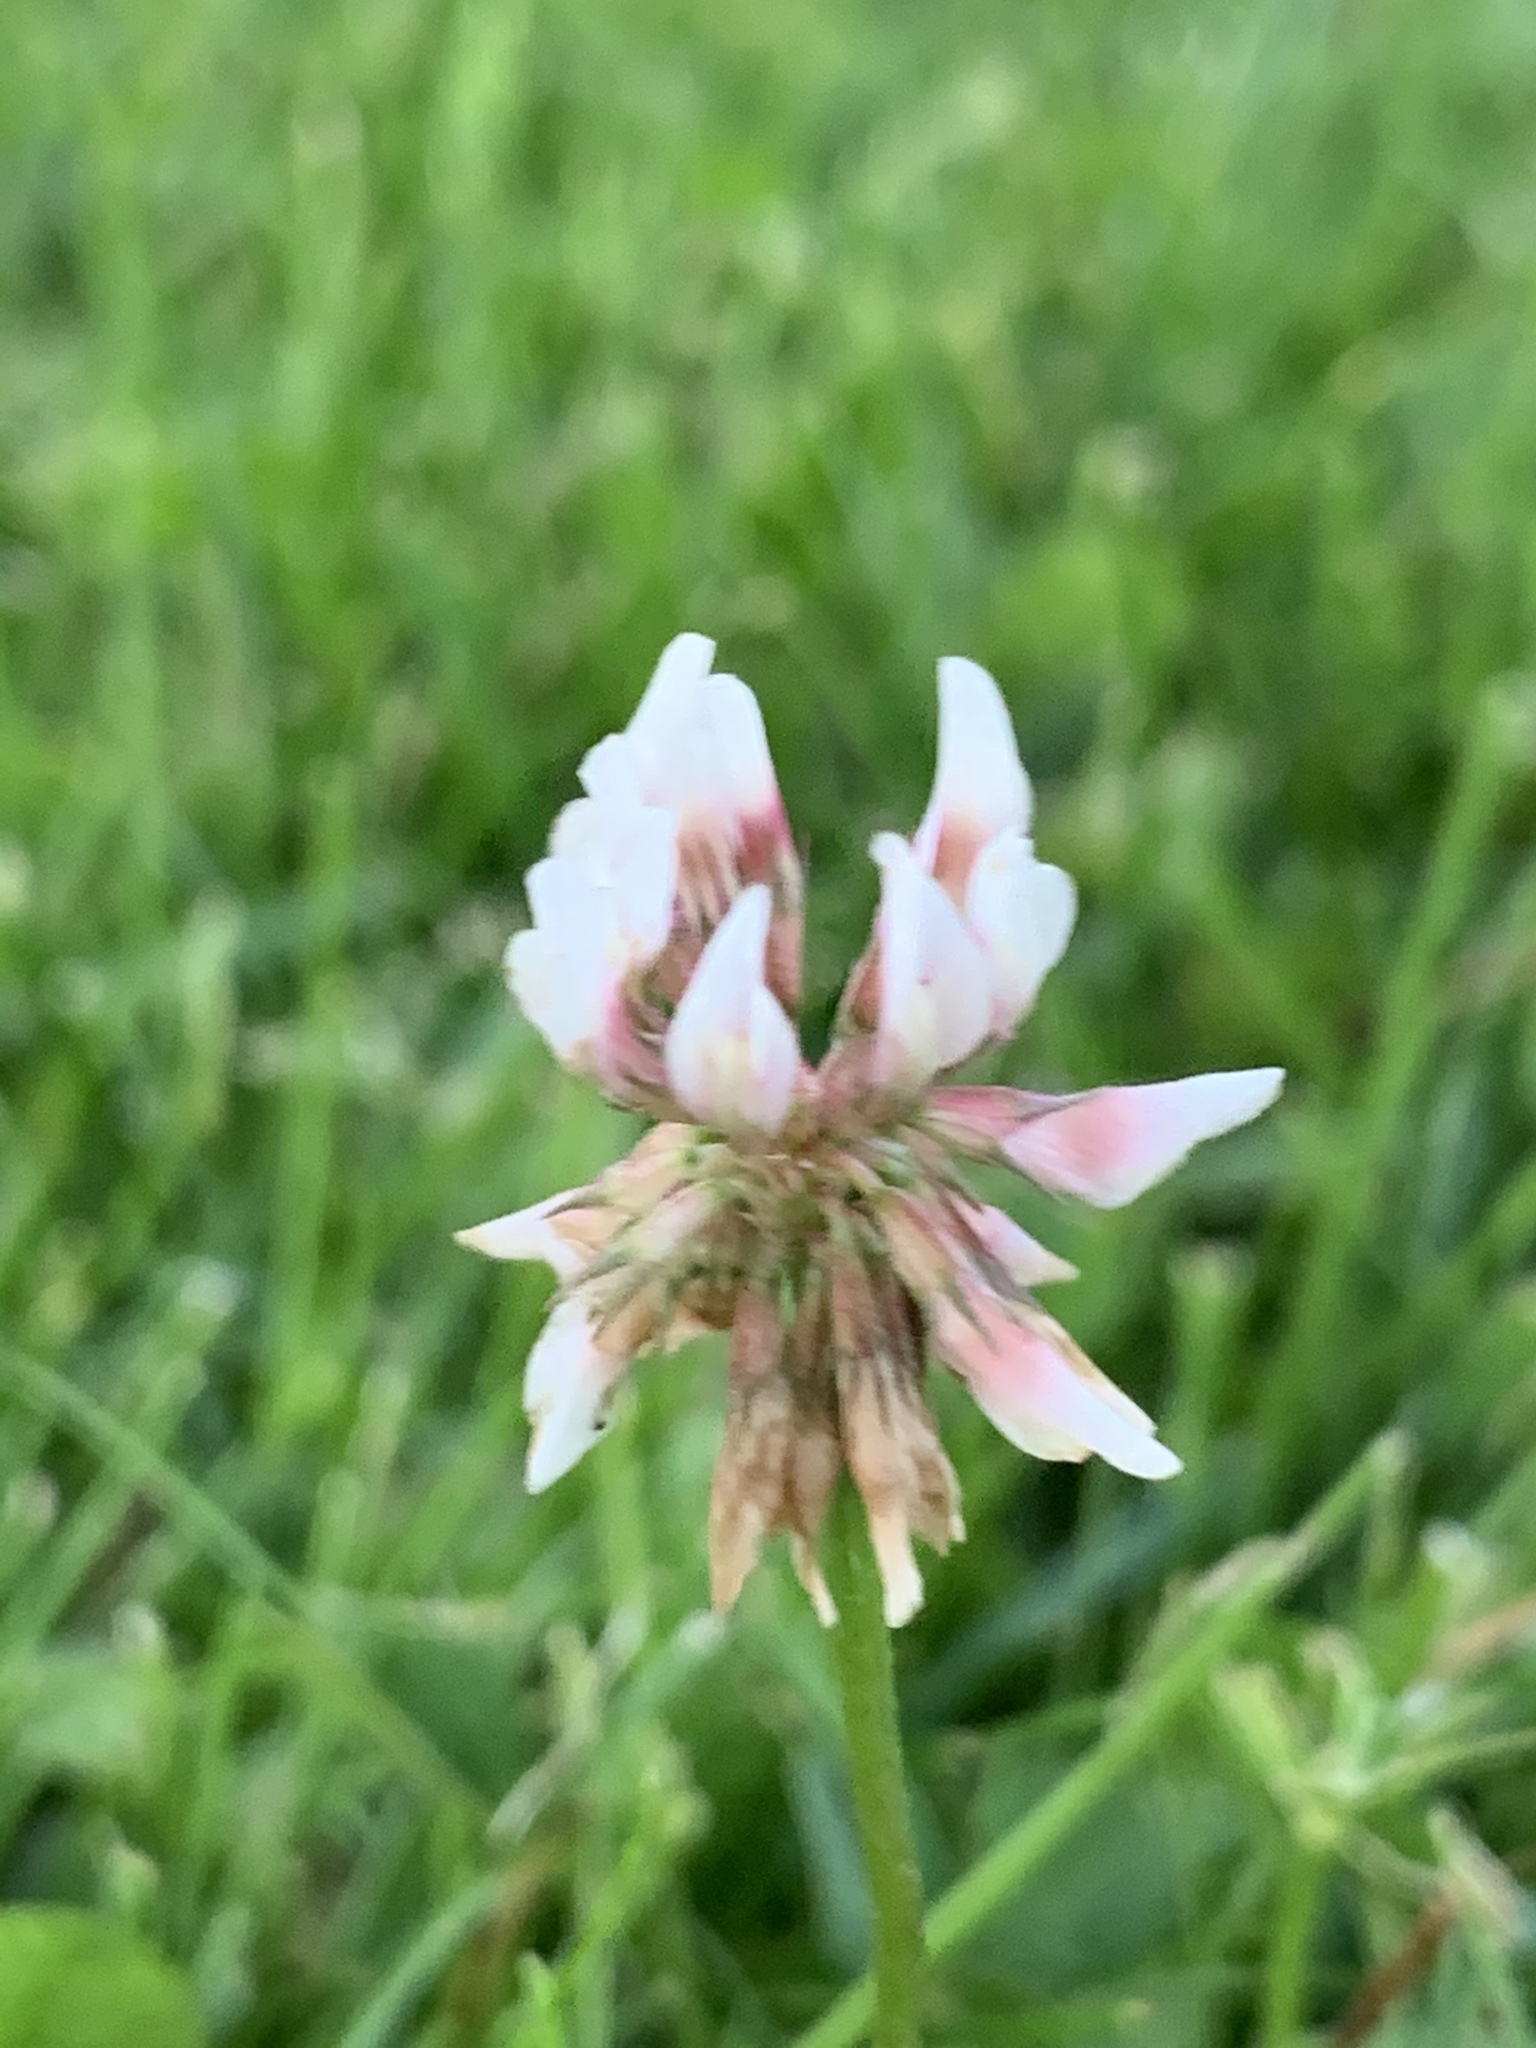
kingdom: Plantae
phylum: Tracheophyta
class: Magnoliopsida
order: Fabales
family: Fabaceae
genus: Trifolium
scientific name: Trifolium repens
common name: White clover
